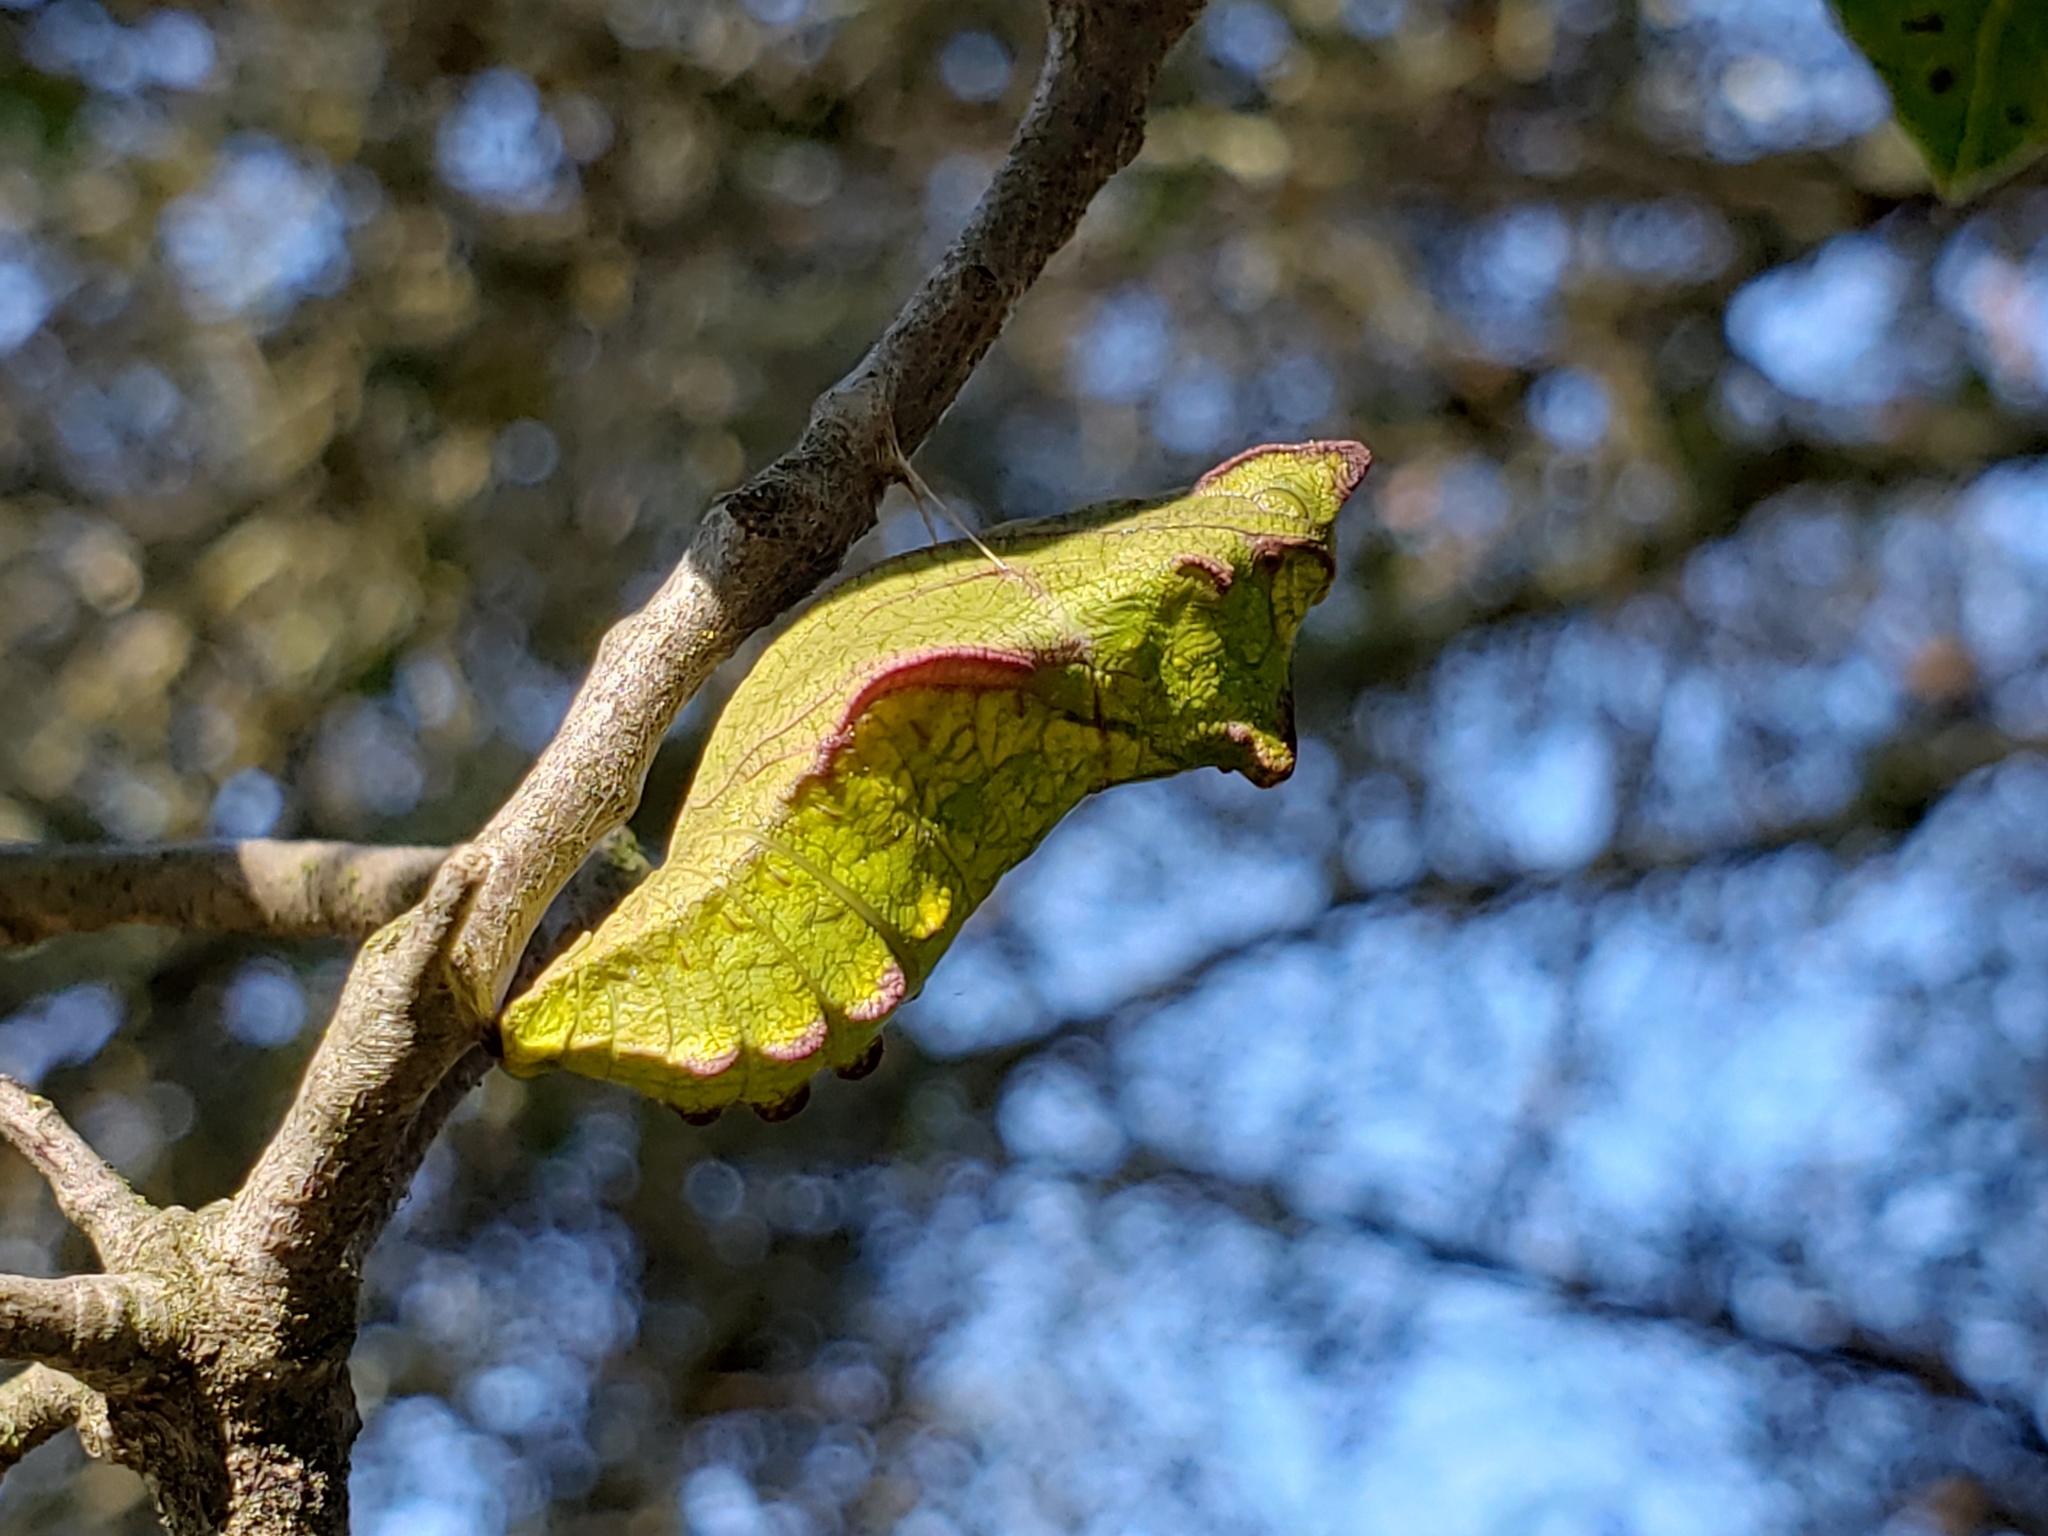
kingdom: Animalia
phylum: Arthropoda
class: Insecta
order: Lepidoptera
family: Papilionidae
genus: Battus
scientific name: Battus philenor
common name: Pipevine swallowtail
